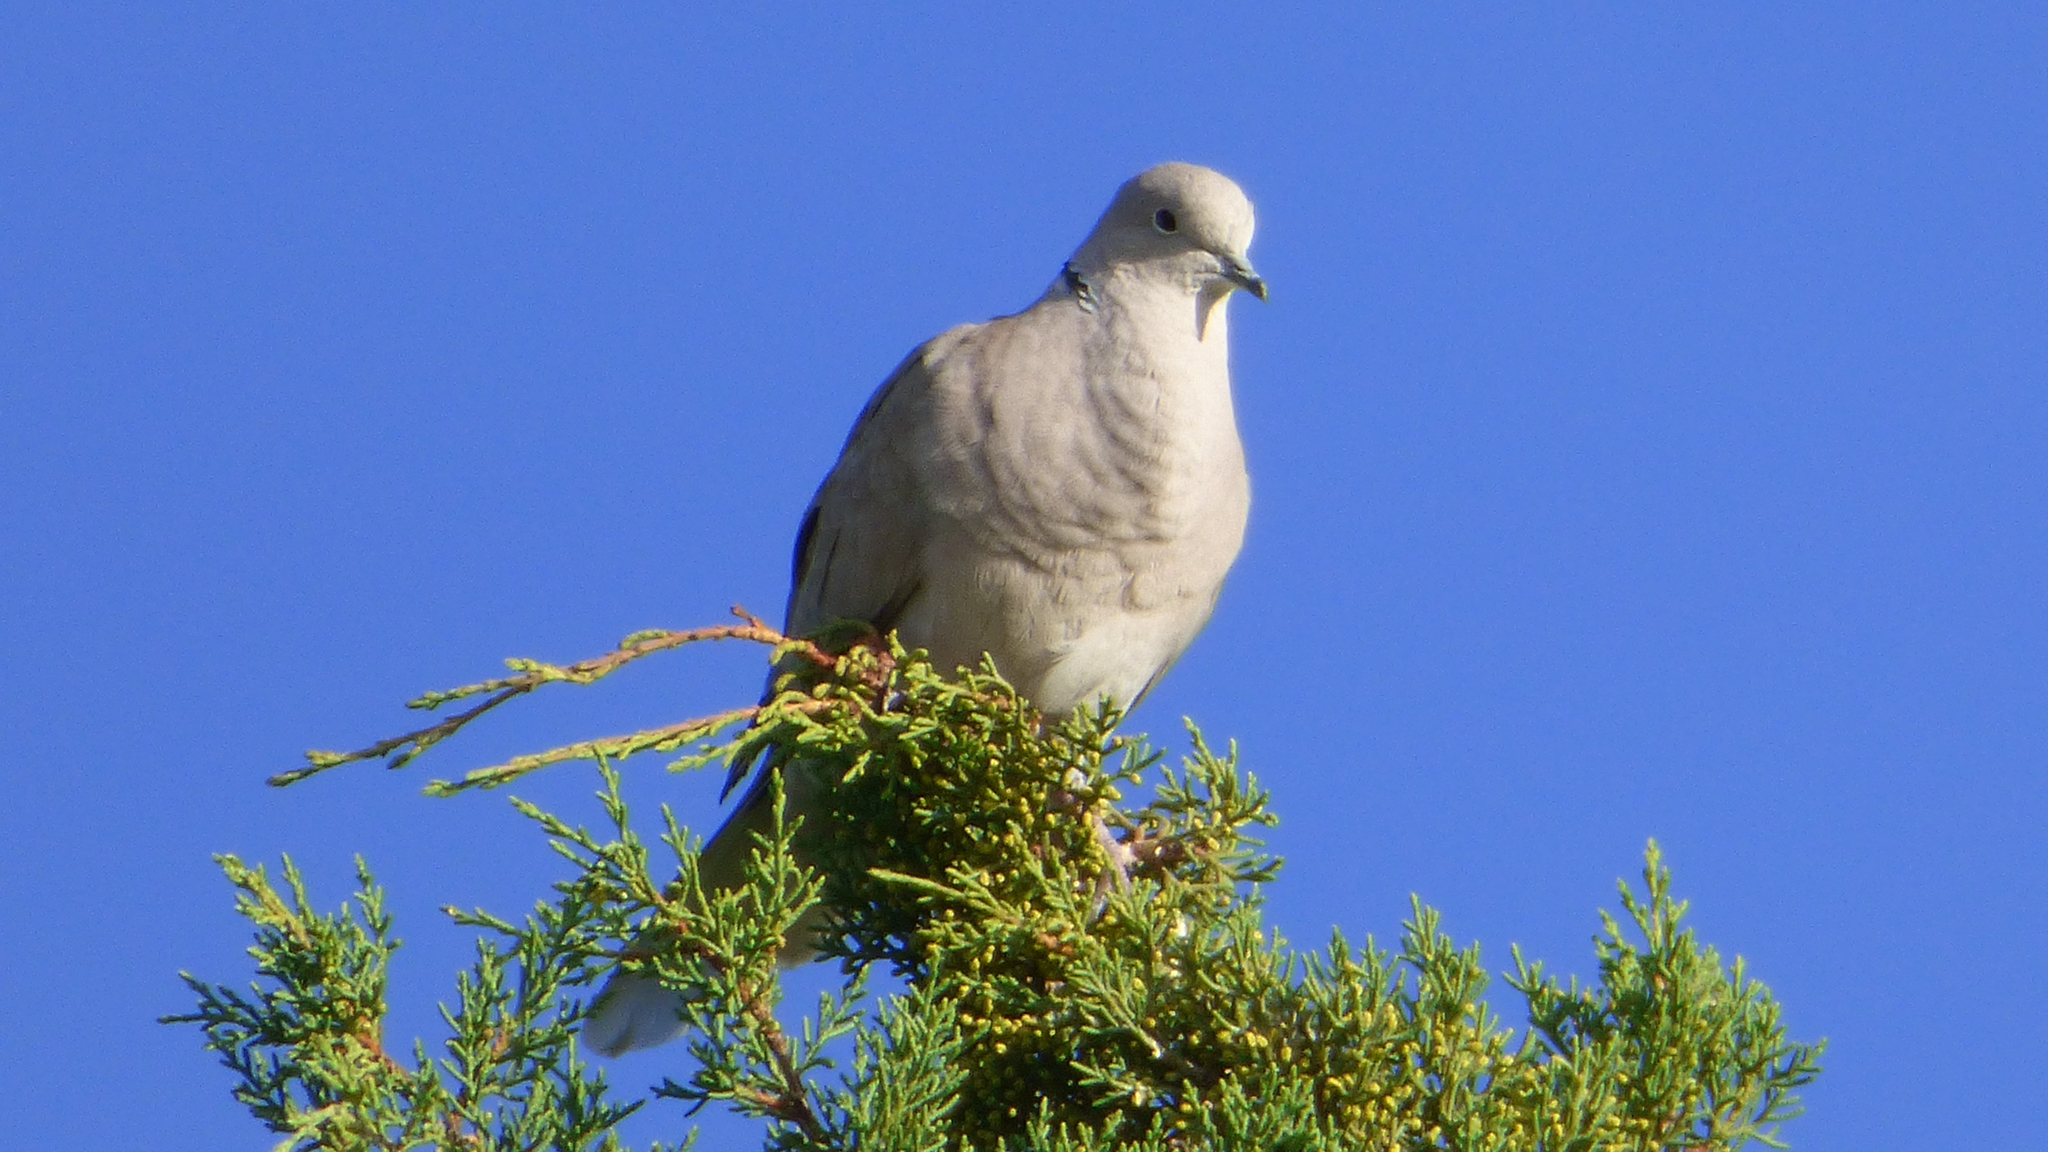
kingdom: Animalia
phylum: Chordata
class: Aves
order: Columbiformes
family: Columbidae
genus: Streptopelia
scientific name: Streptopelia decaocto
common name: Eurasian collared dove
